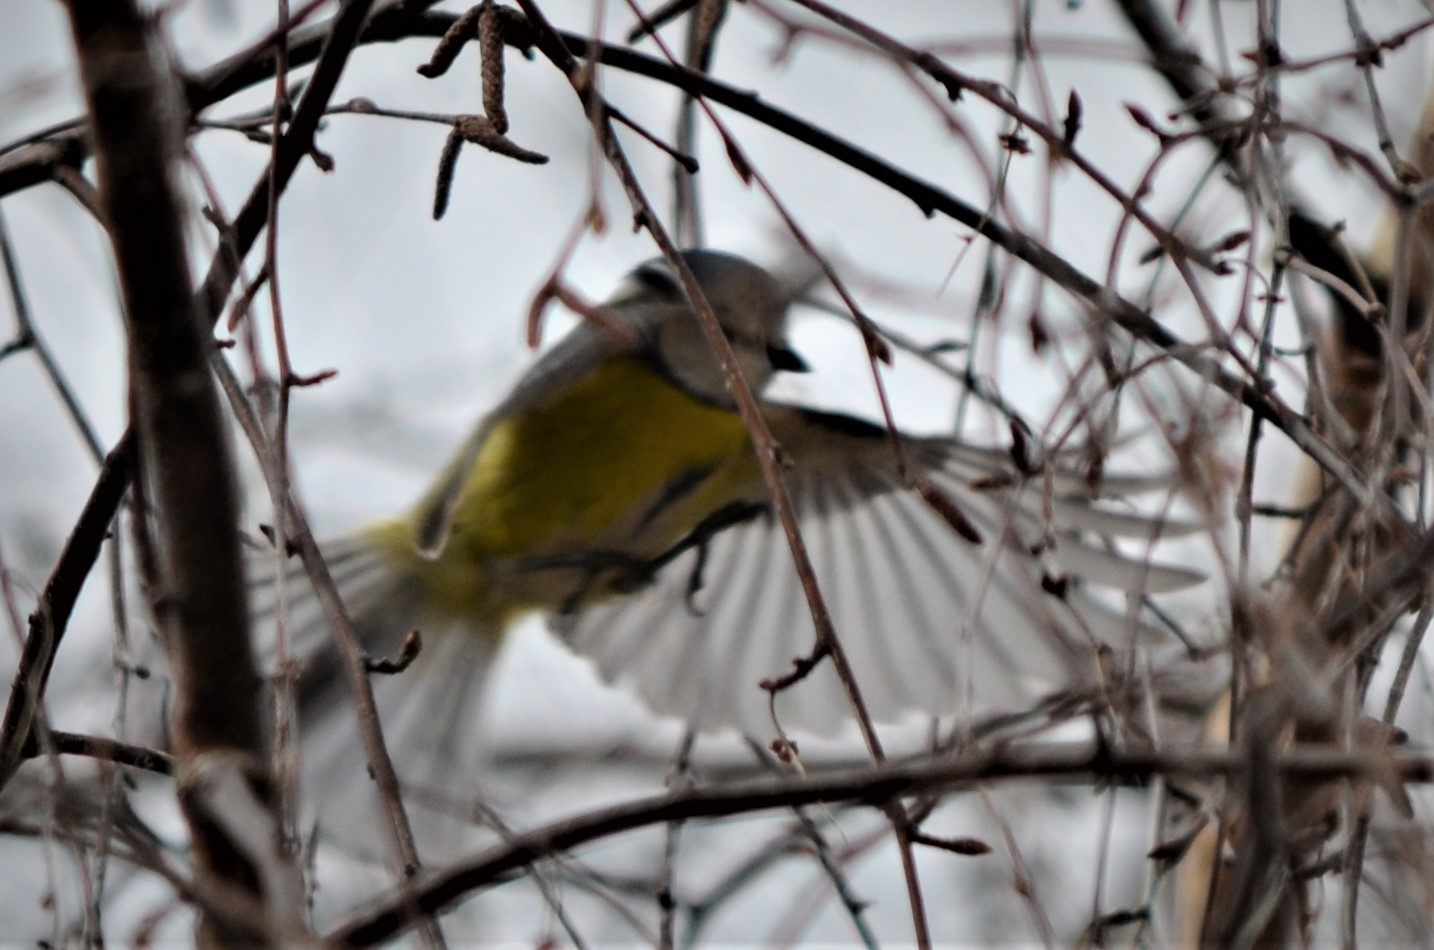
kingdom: Animalia
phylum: Chordata
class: Aves
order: Passeriformes
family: Paridae
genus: Cyanistes
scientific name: Cyanistes caeruleus
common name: Eurasian blue tit
